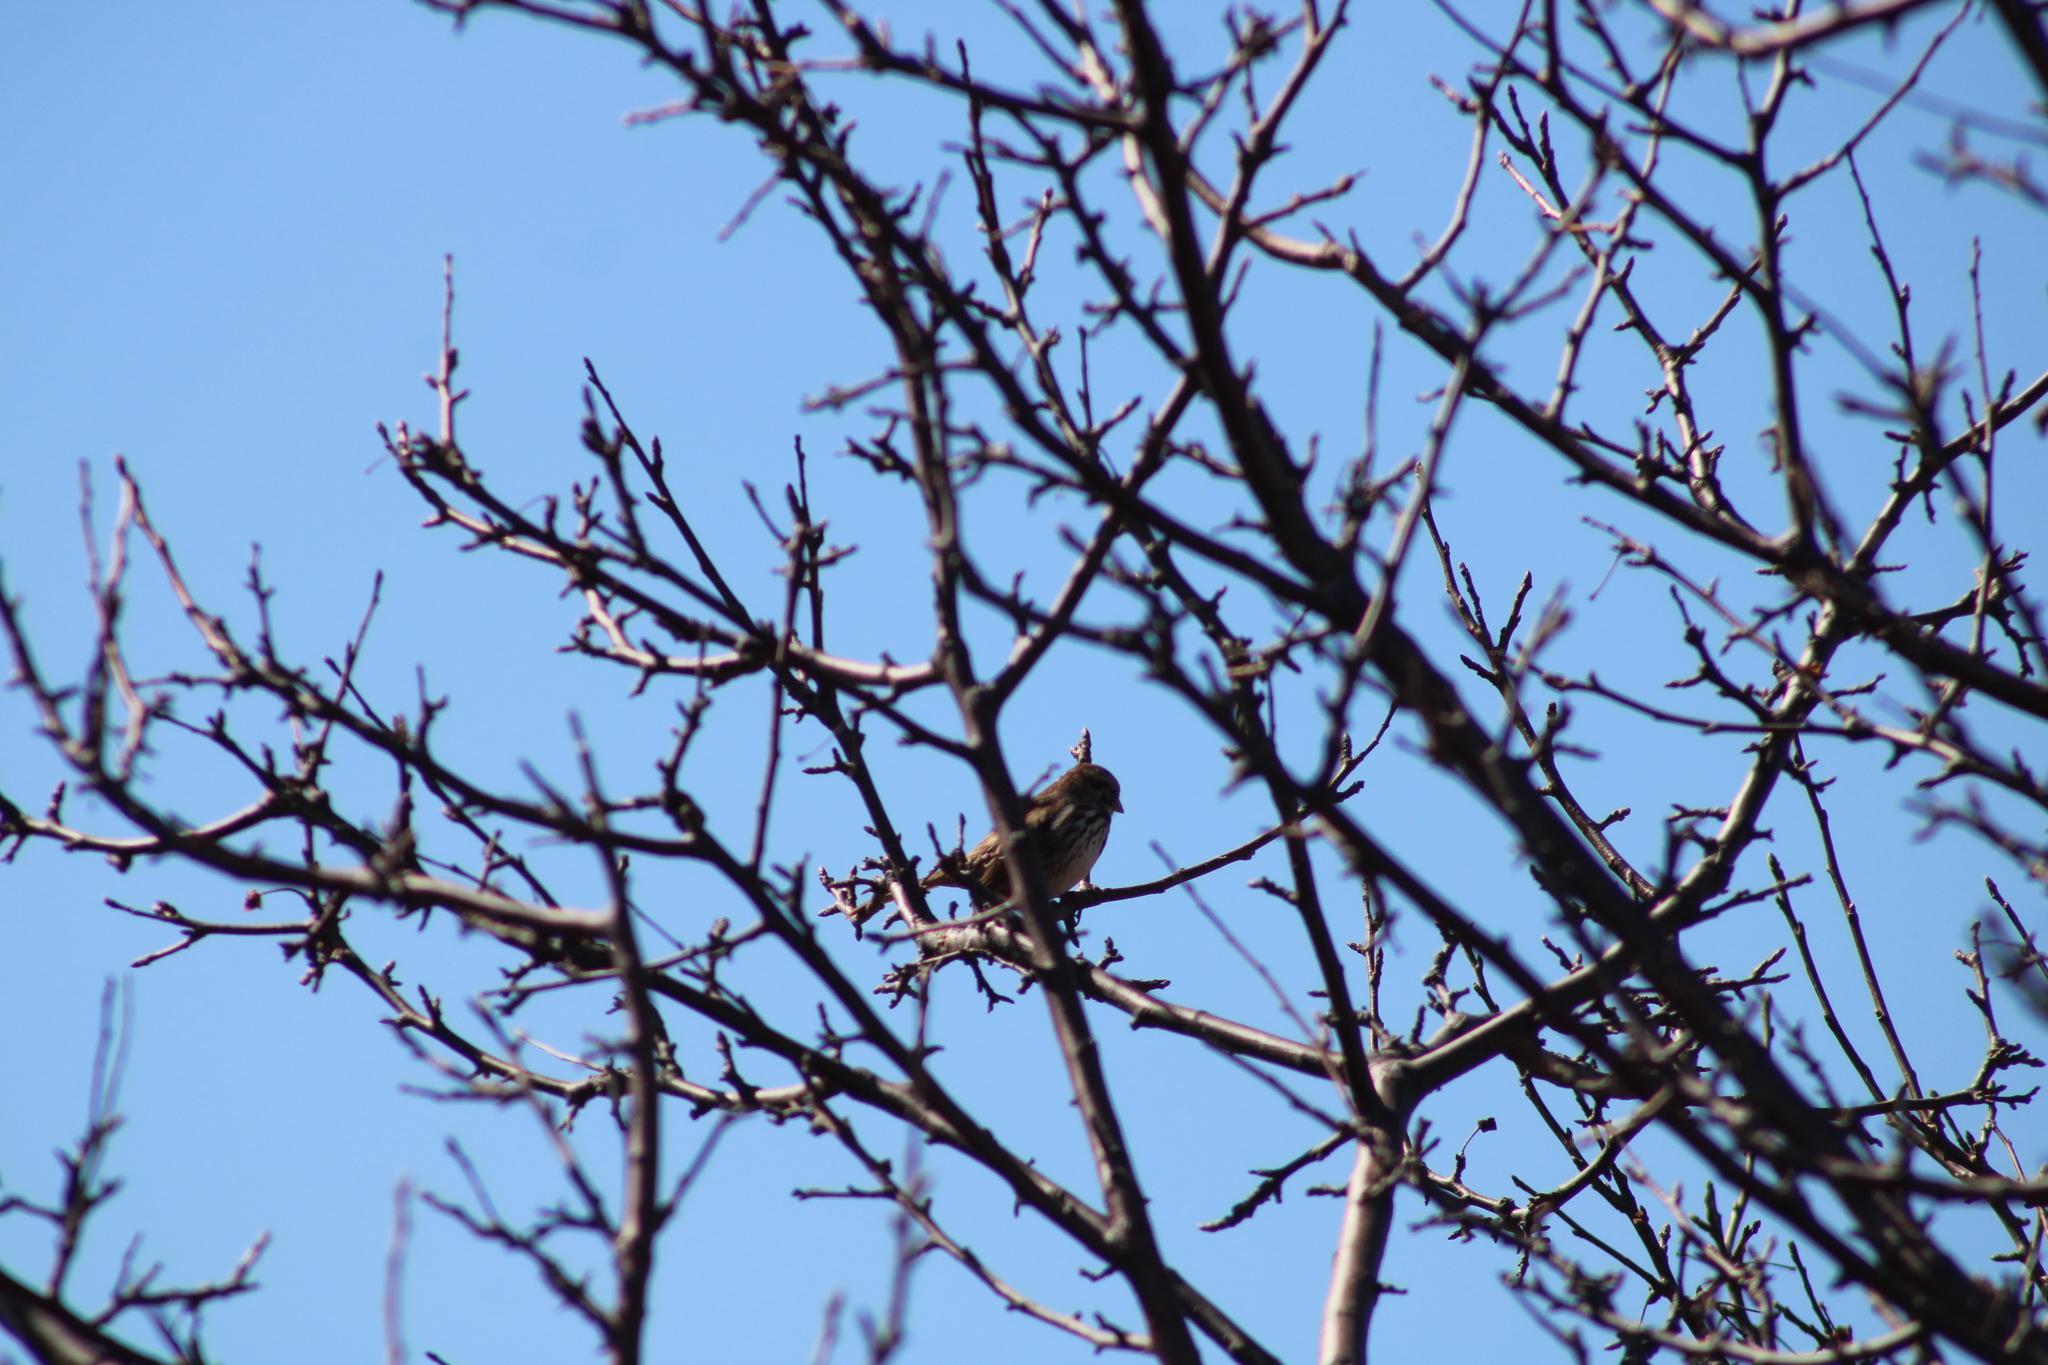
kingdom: Animalia
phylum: Chordata
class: Aves
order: Passeriformes
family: Passerellidae
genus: Melospiza
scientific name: Melospiza melodia
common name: Song sparrow
